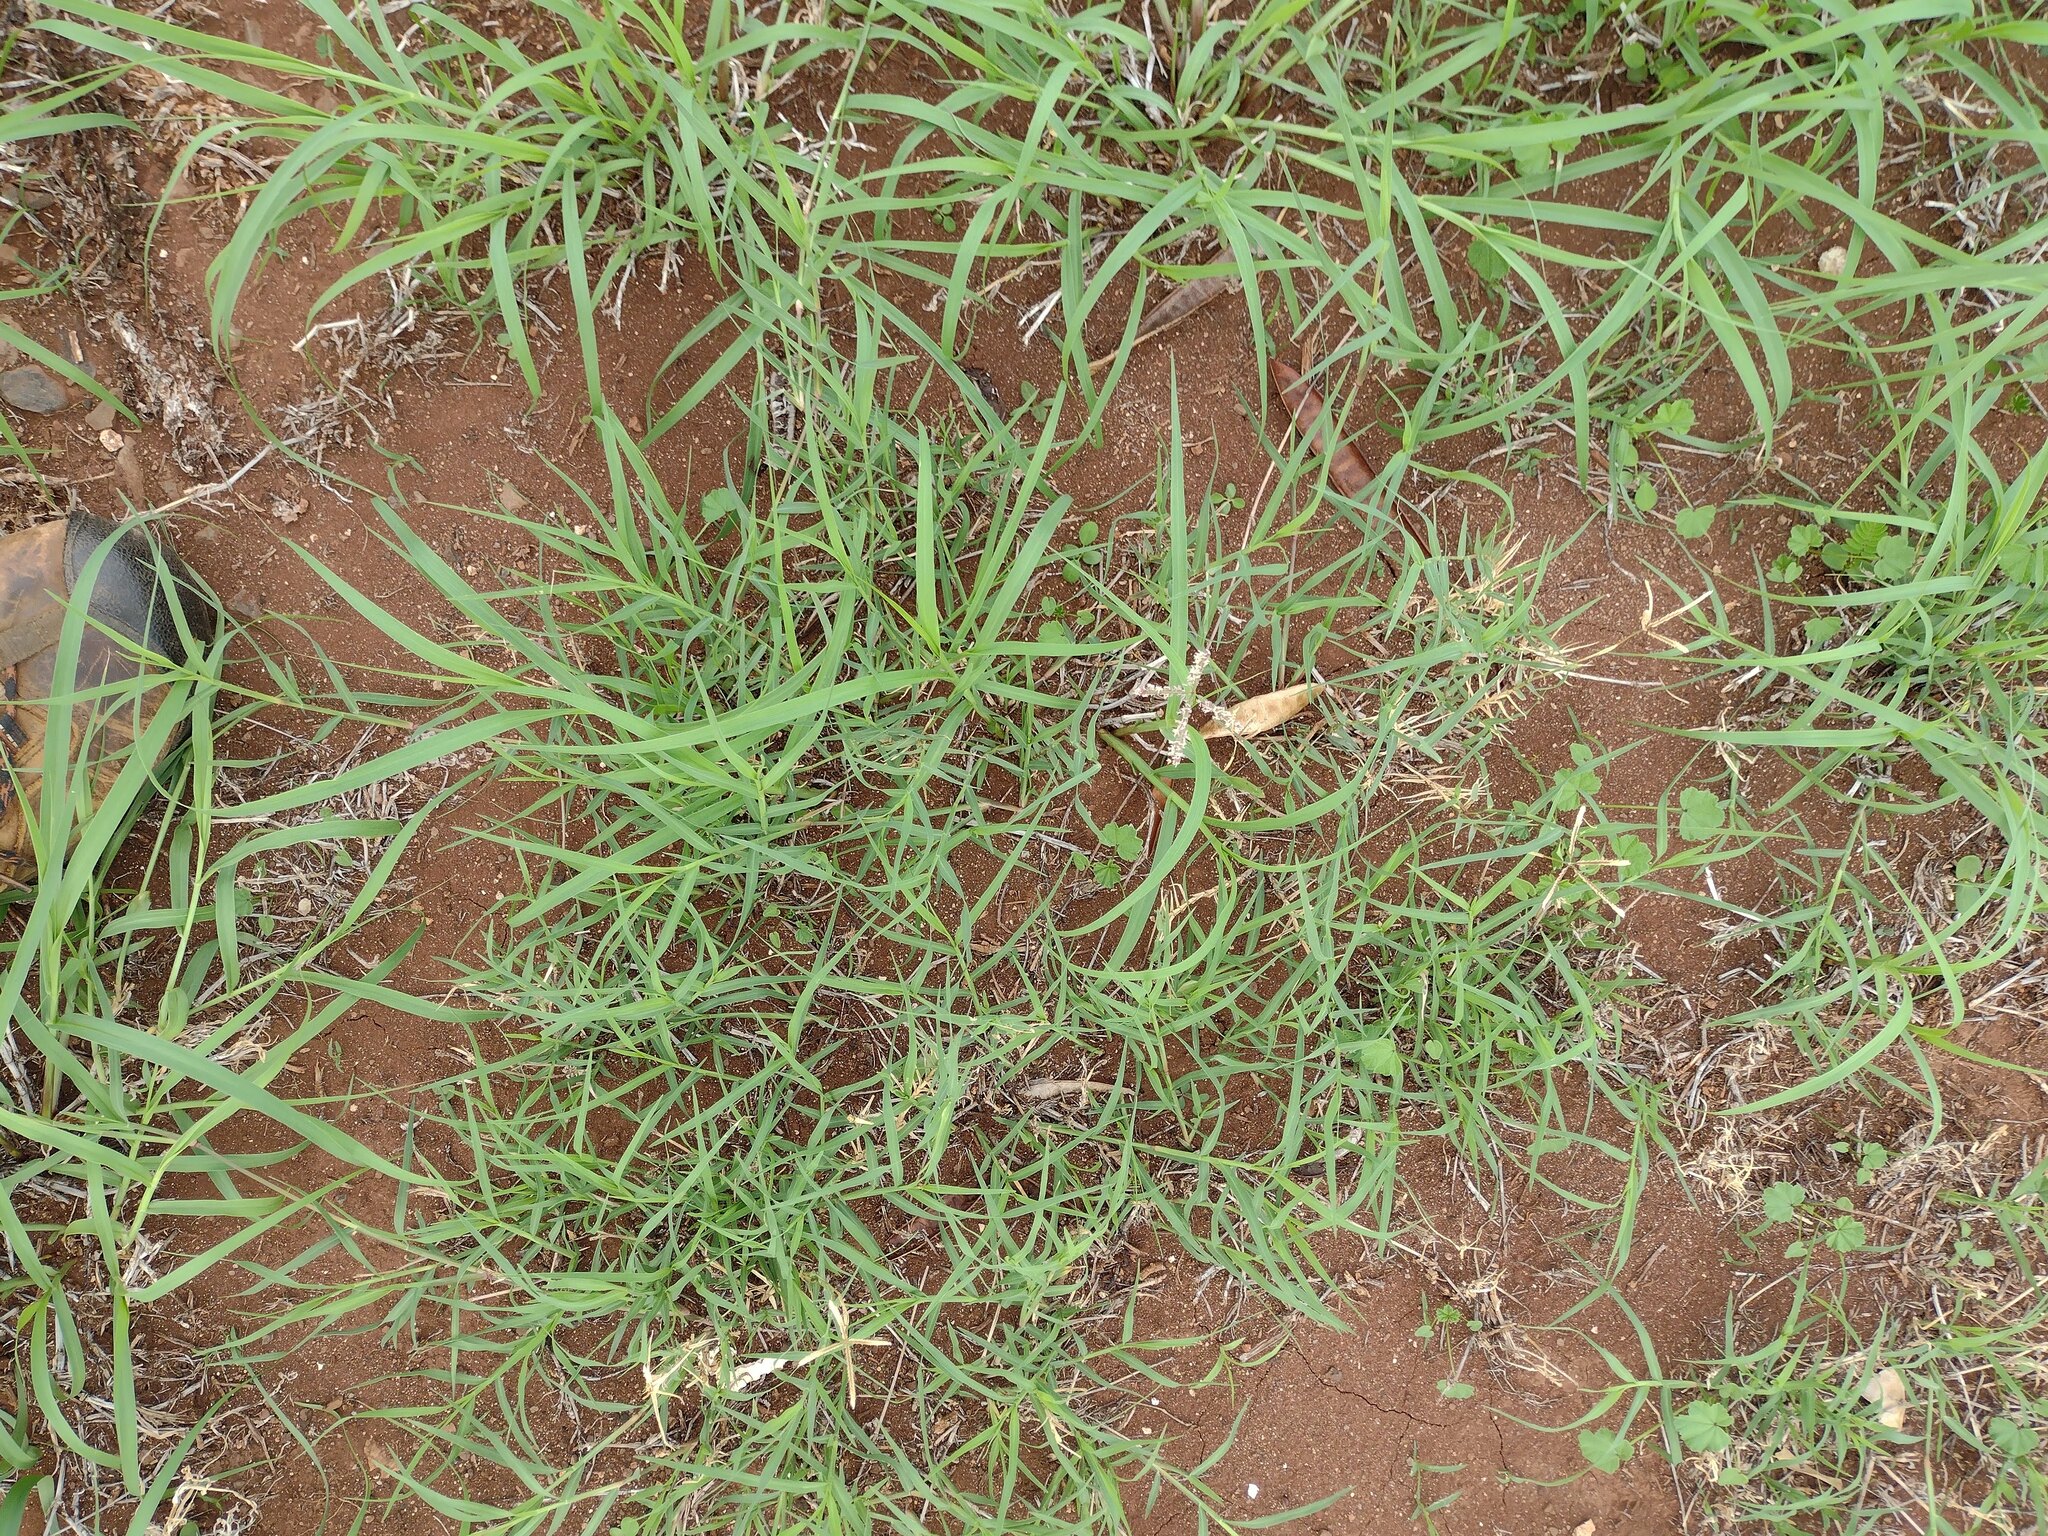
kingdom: Plantae
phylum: Tracheophyta
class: Liliopsida
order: Poales
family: Poaceae
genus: Cynodon
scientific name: Cynodon dactylon
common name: Bermuda grass
